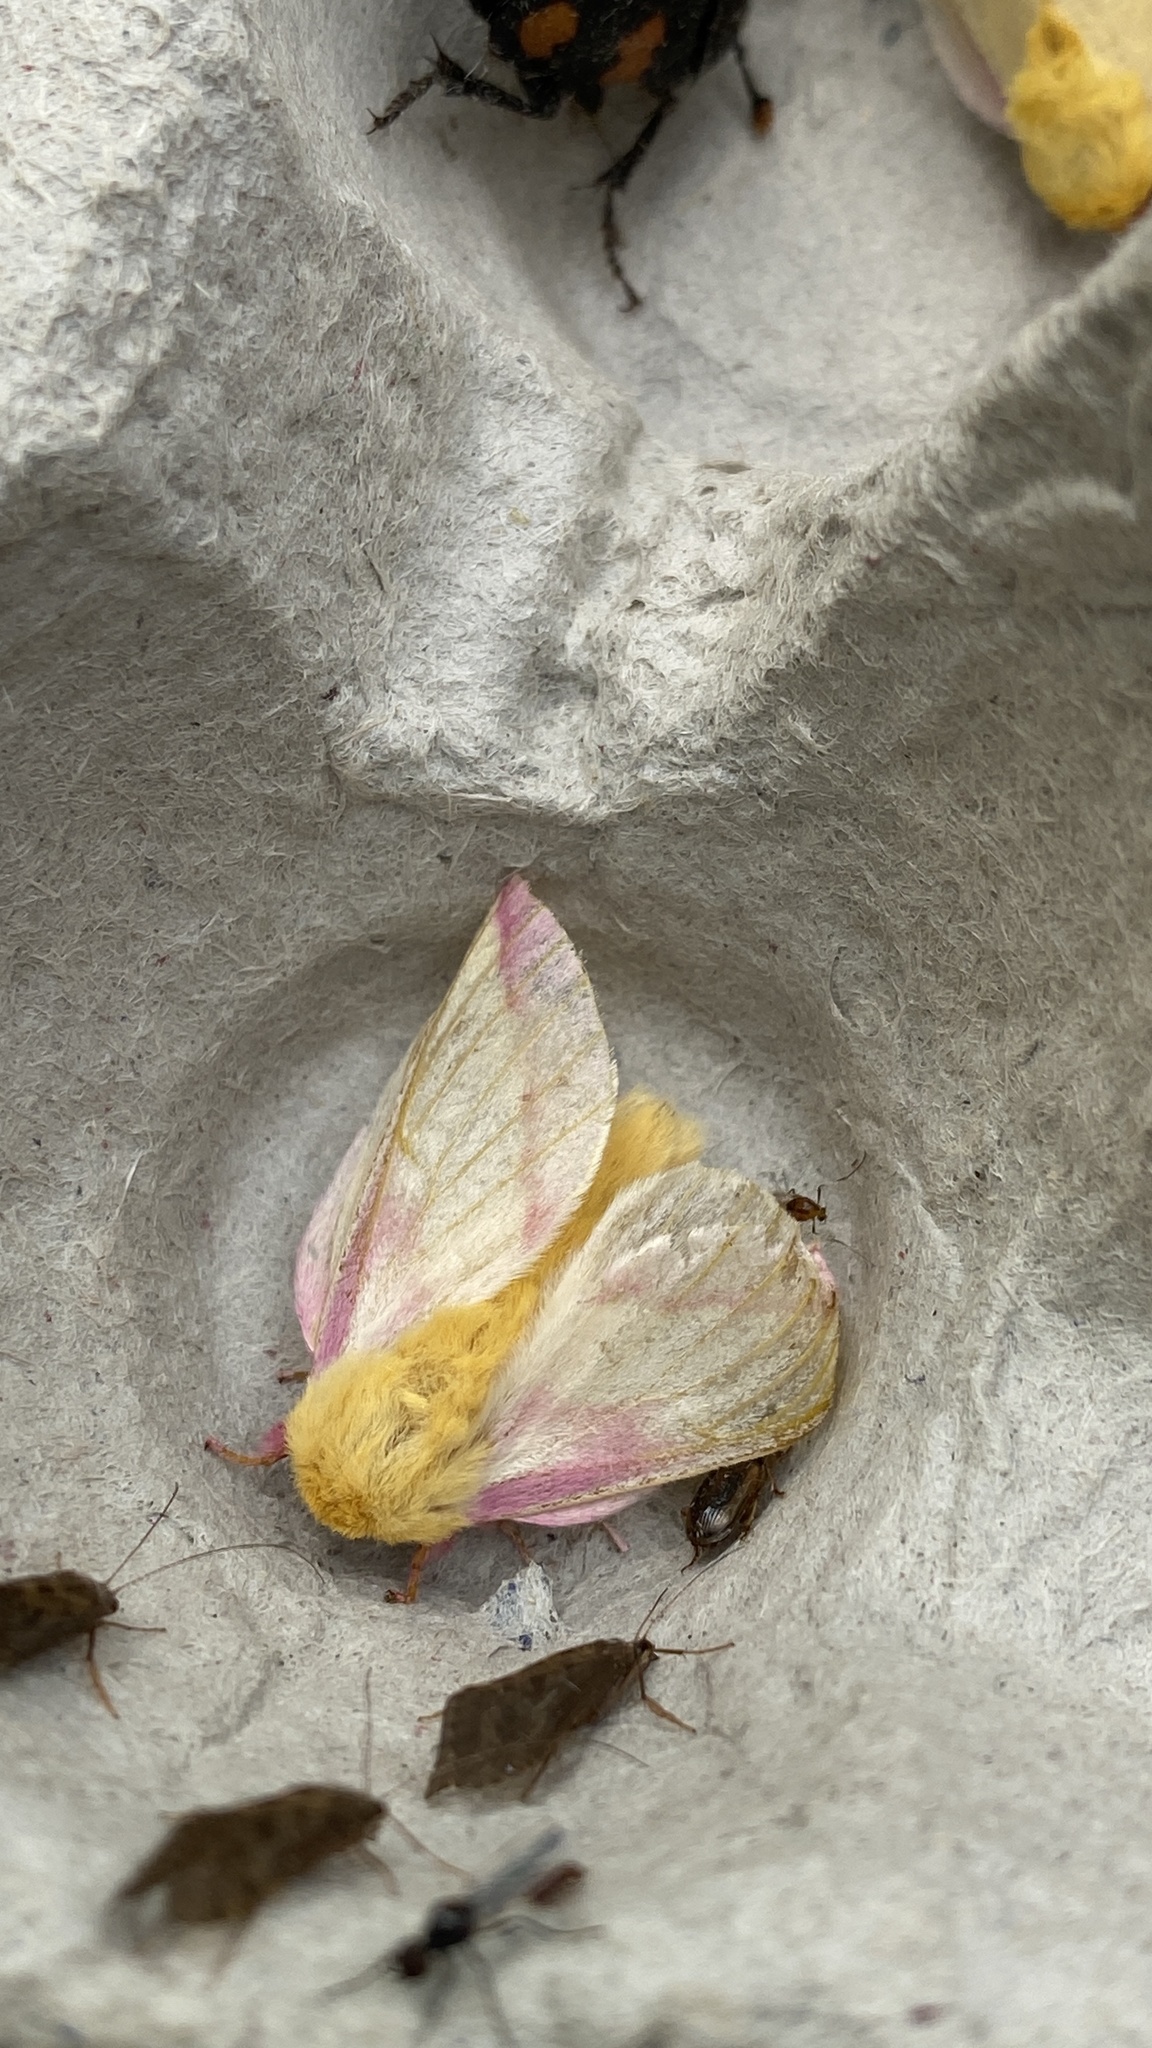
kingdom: Animalia
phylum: Arthropoda
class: Insecta
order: Lepidoptera
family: Saturniidae
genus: Dryocampa
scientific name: Dryocampa rubicunda
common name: Rosy maple moth
